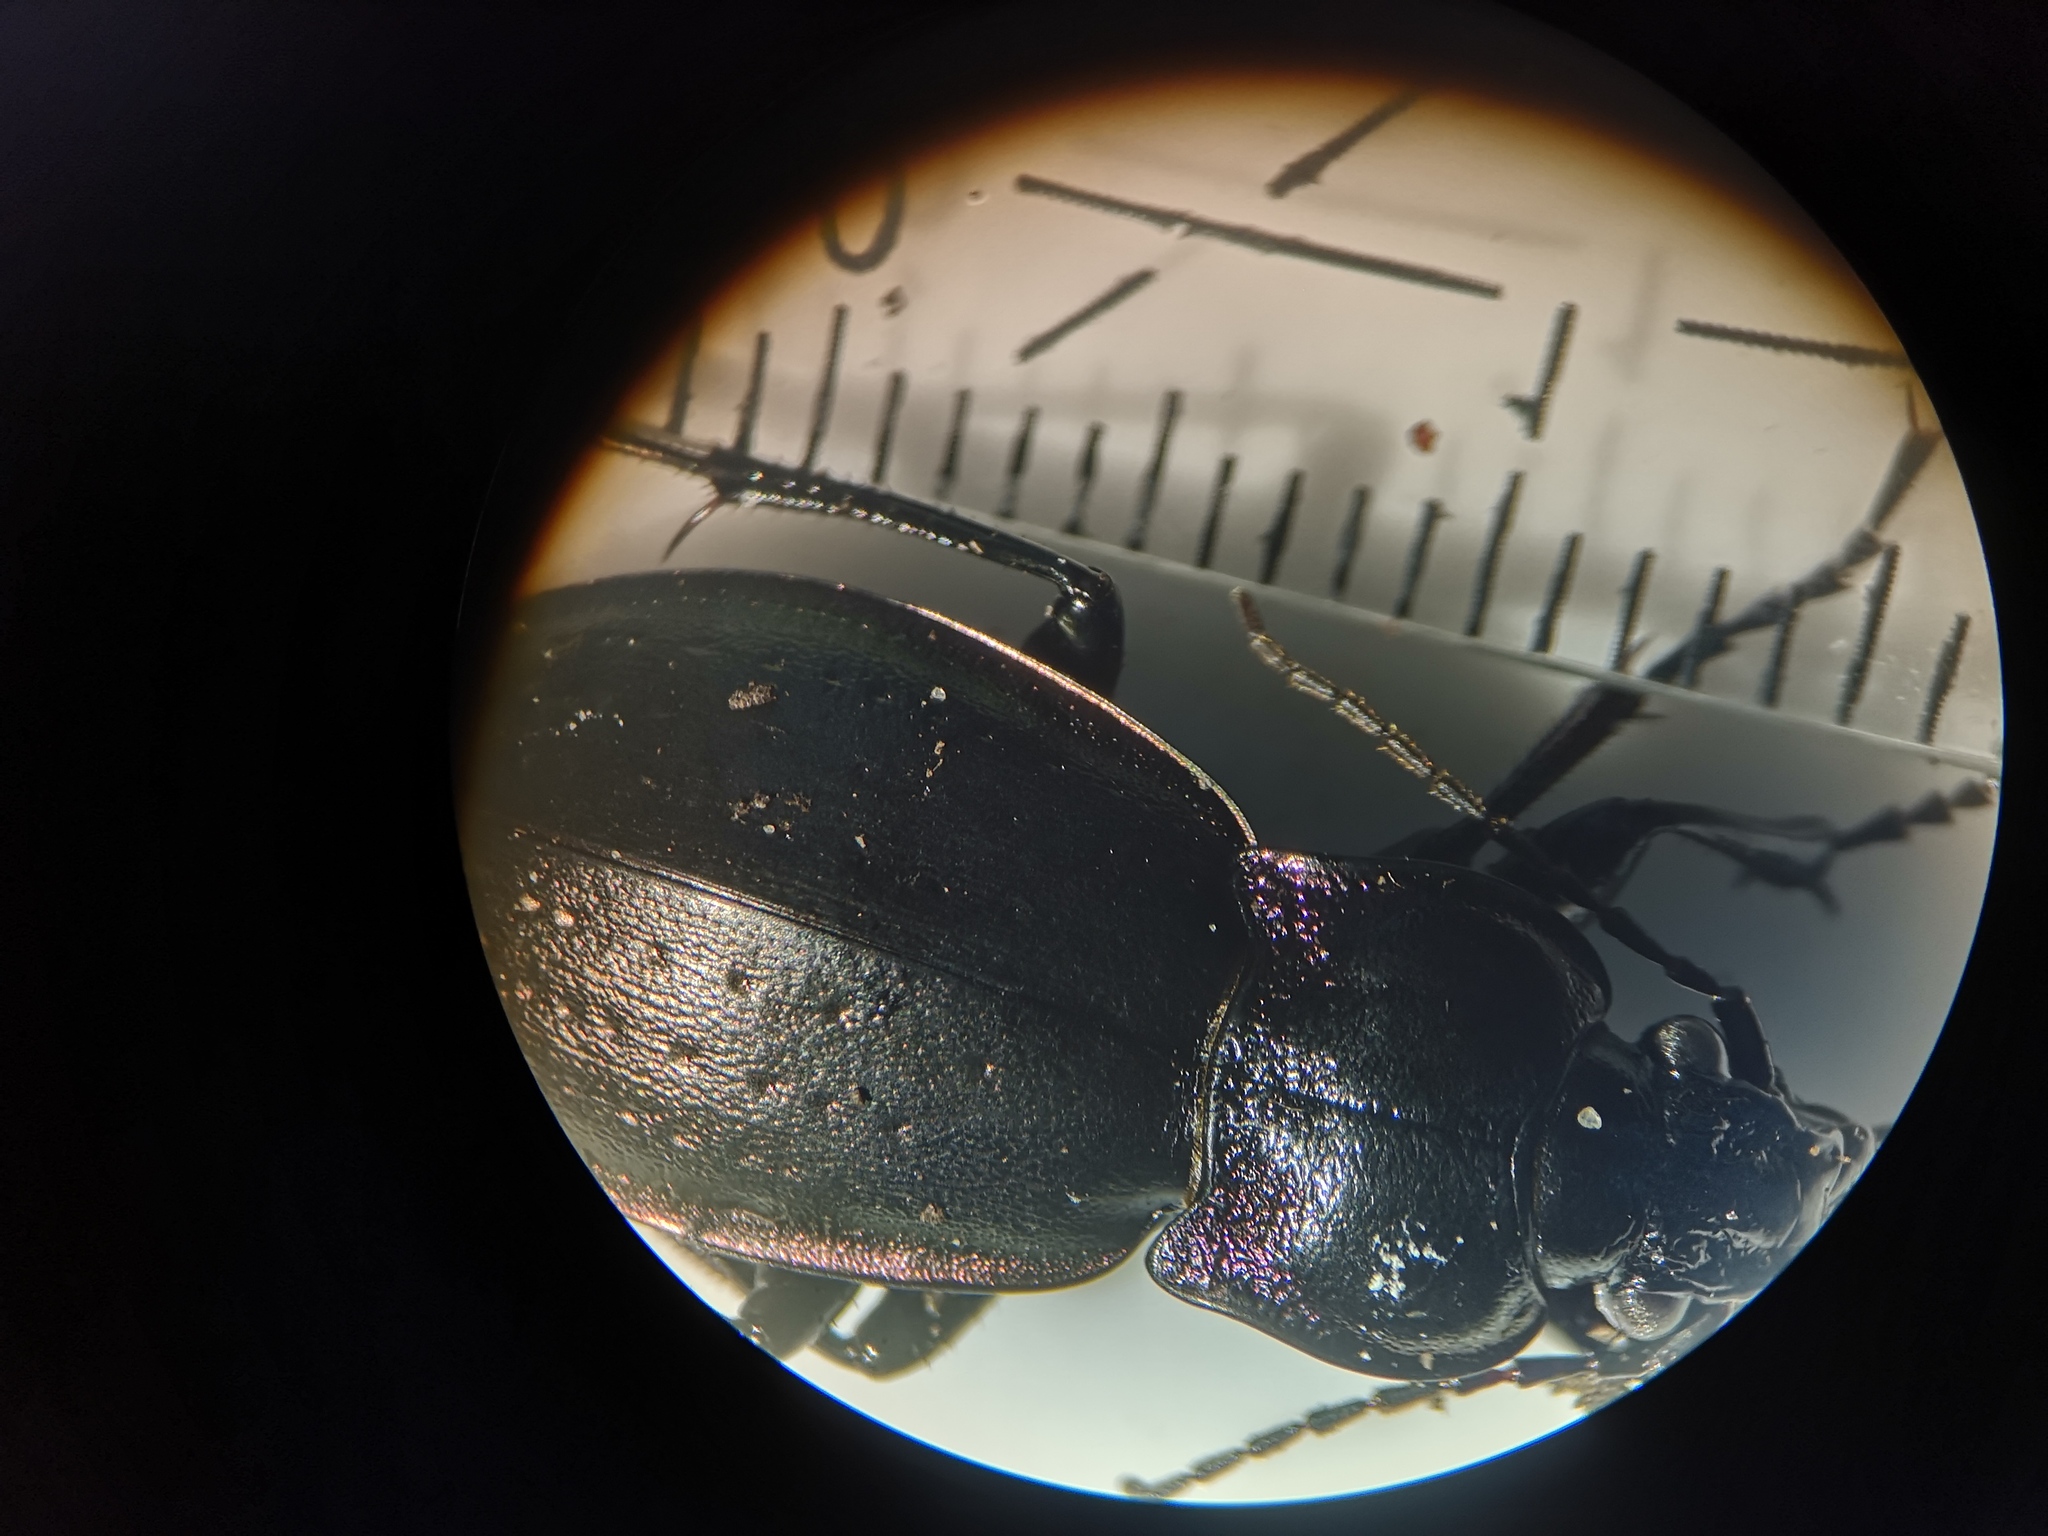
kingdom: Animalia
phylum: Arthropoda
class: Insecta
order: Coleoptera
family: Carabidae
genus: Carabus
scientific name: Carabus nemoralis
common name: European ground beetle
